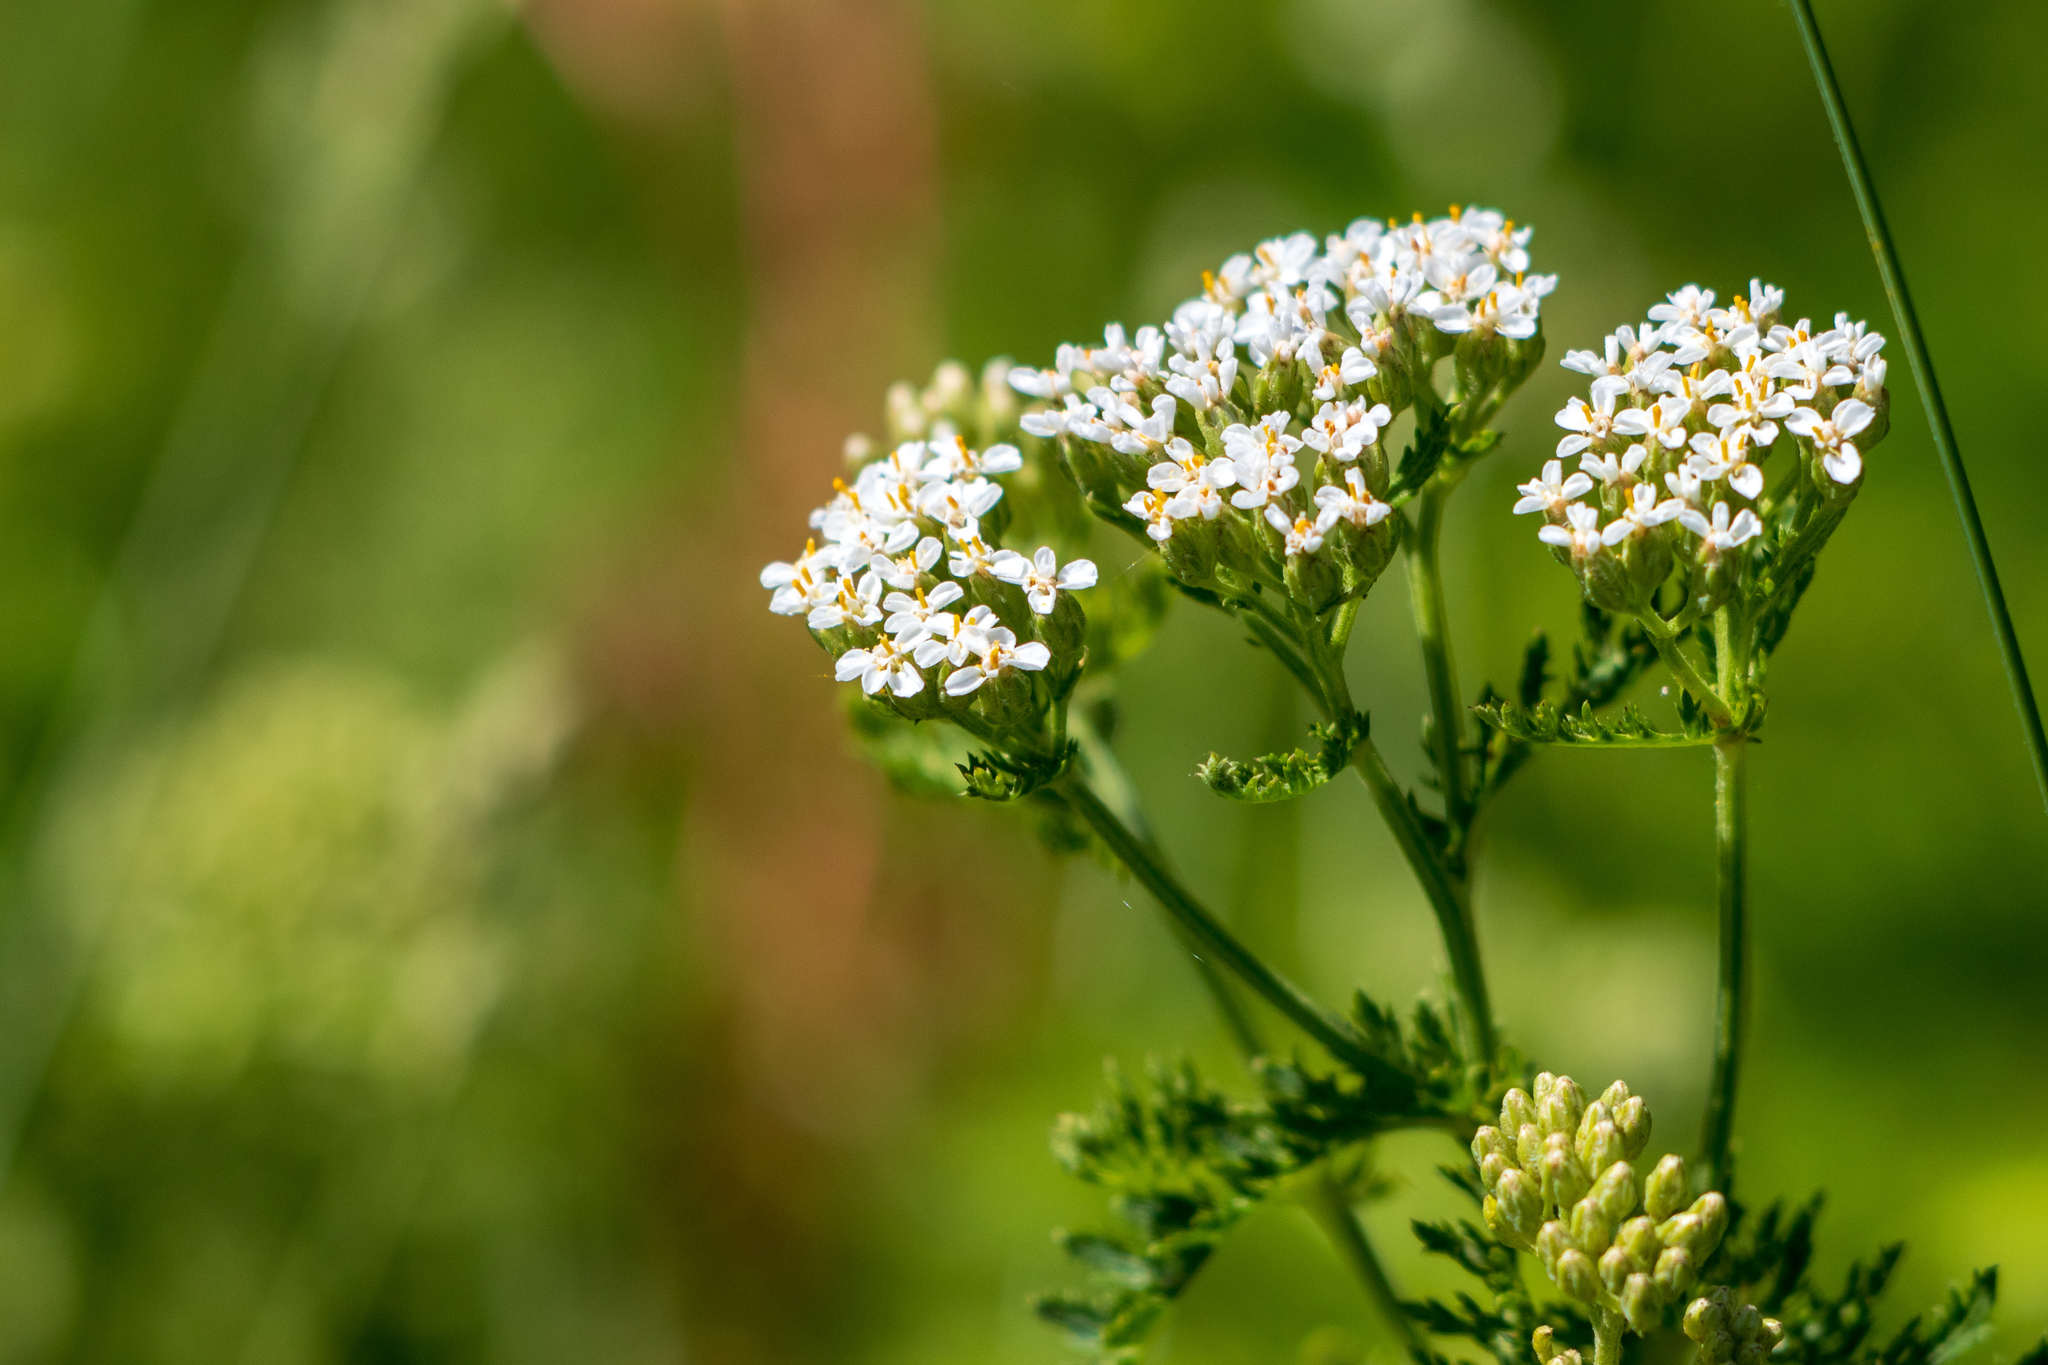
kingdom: Plantae
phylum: Tracheophyta
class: Magnoliopsida
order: Asterales
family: Asteraceae
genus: Achillea
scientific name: Achillea millefolium
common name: Yarrow
